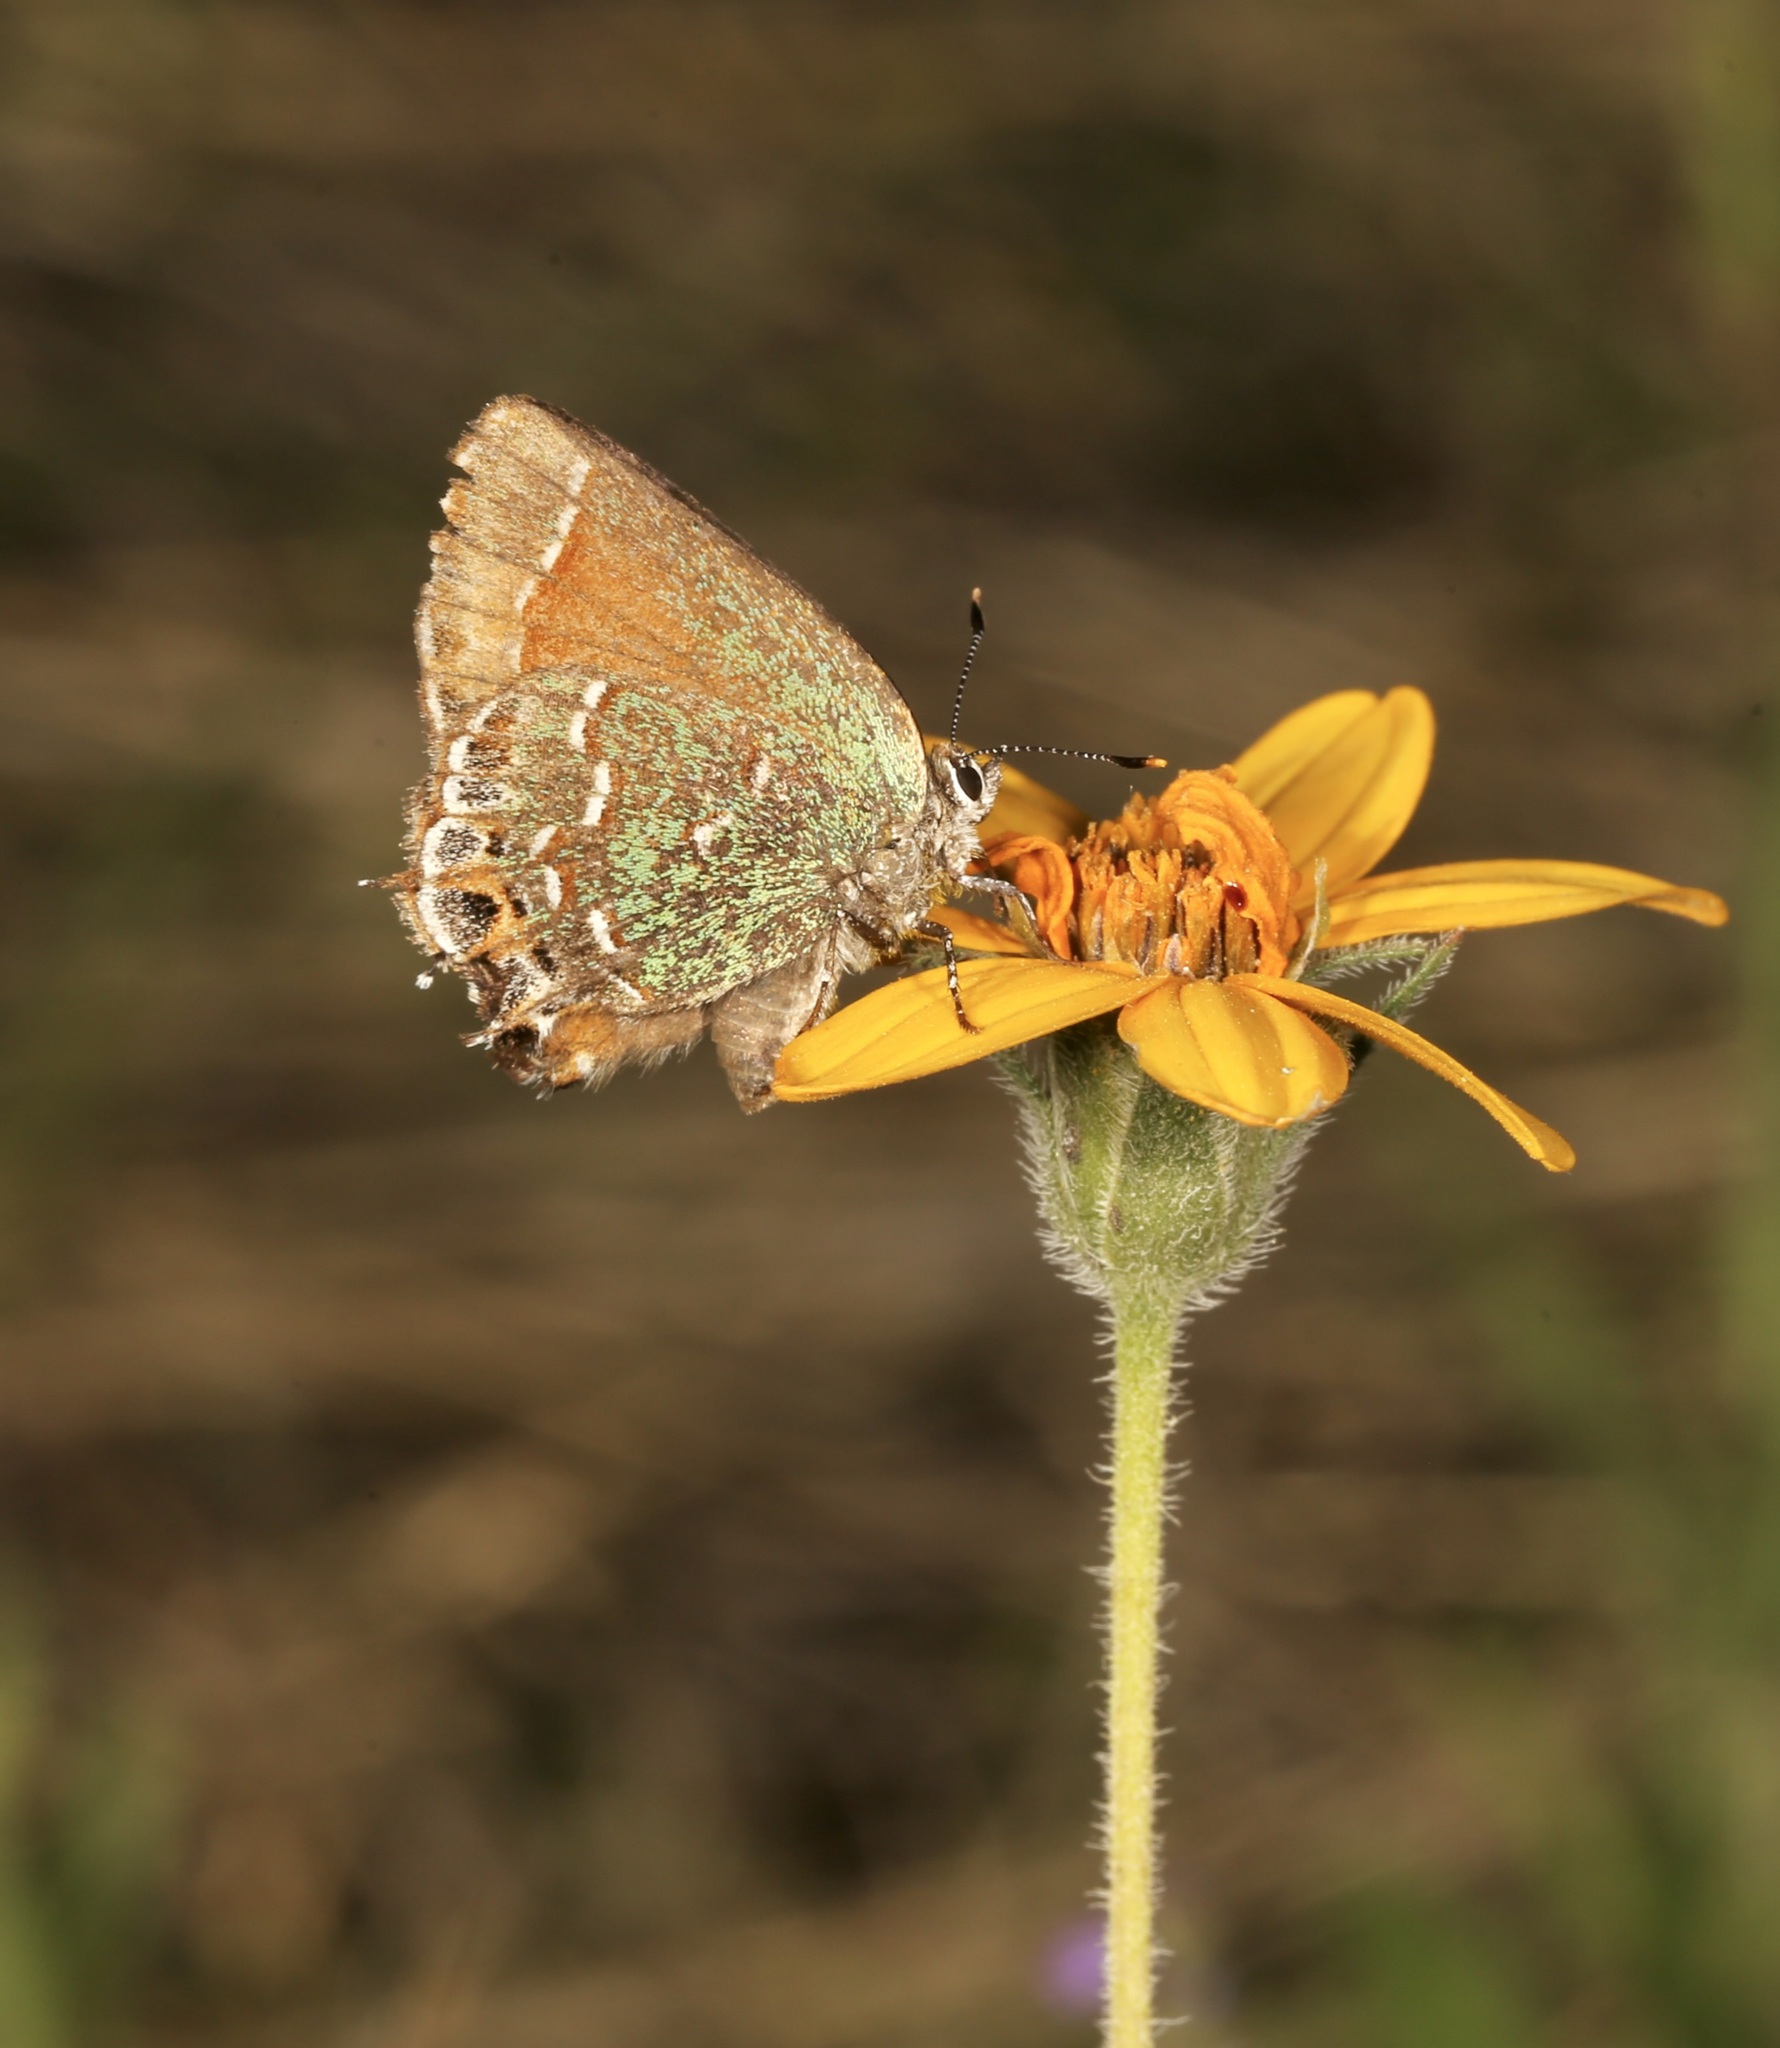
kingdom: Animalia
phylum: Arthropoda
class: Insecta
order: Lepidoptera
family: Lycaenidae
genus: Mitoura
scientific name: Mitoura gryneus
